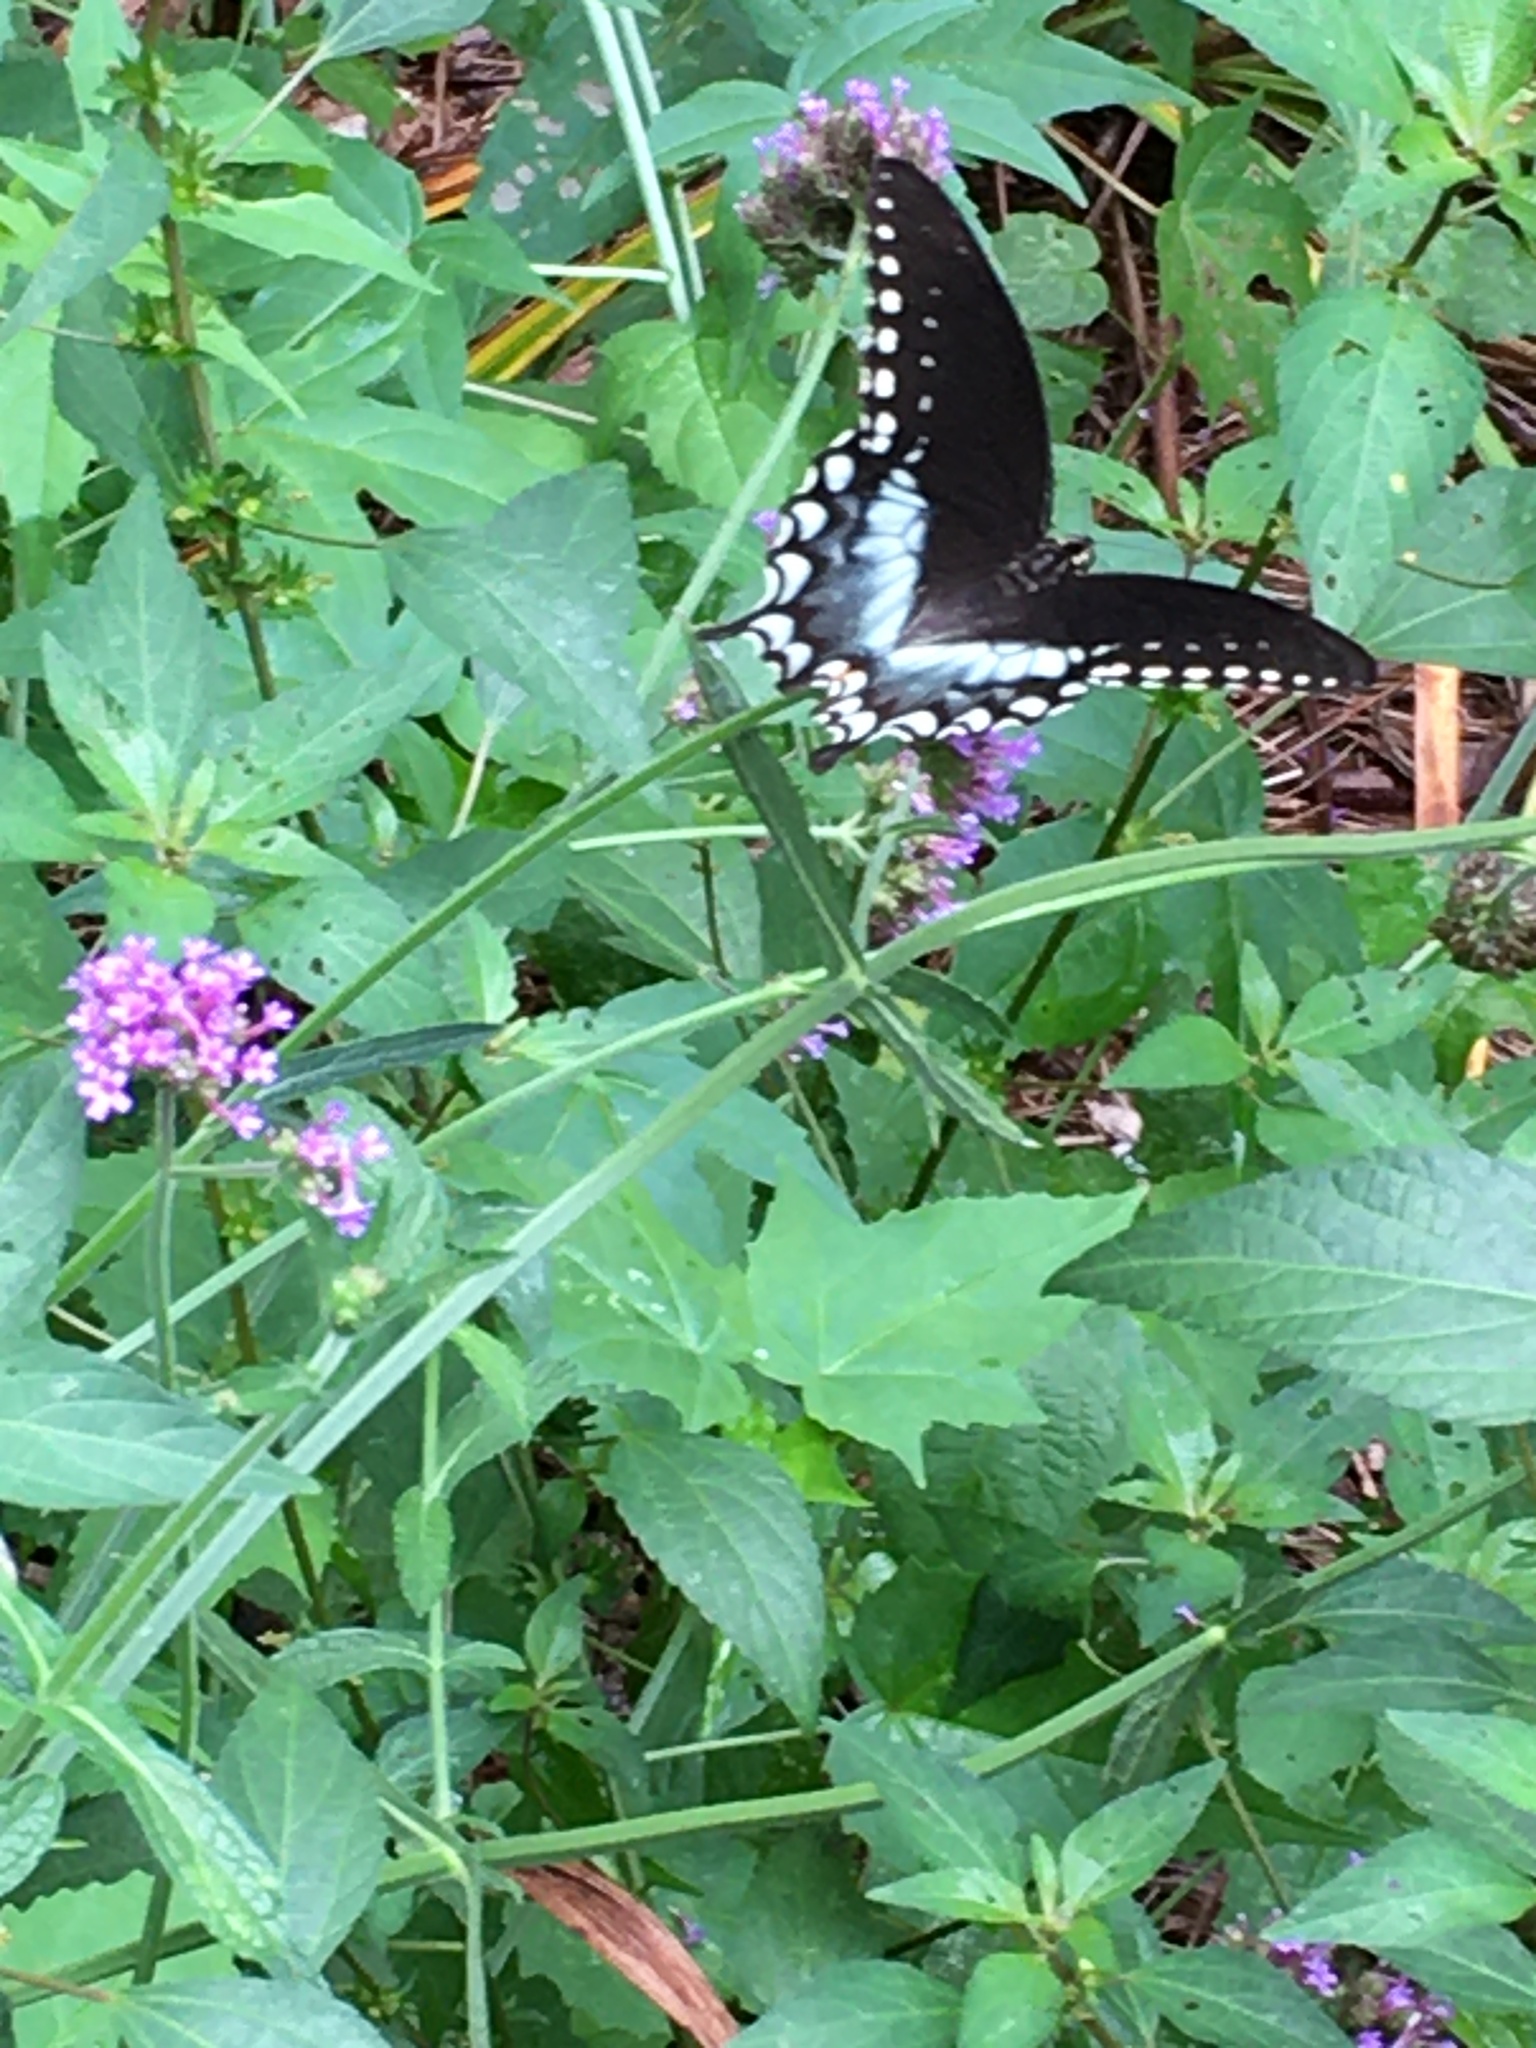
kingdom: Animalia
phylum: Arthropoda
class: Insecta
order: Lepidoptera
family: Papilionidae
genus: Papilio
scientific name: Papilio troilus
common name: Spicebush swallowtail
